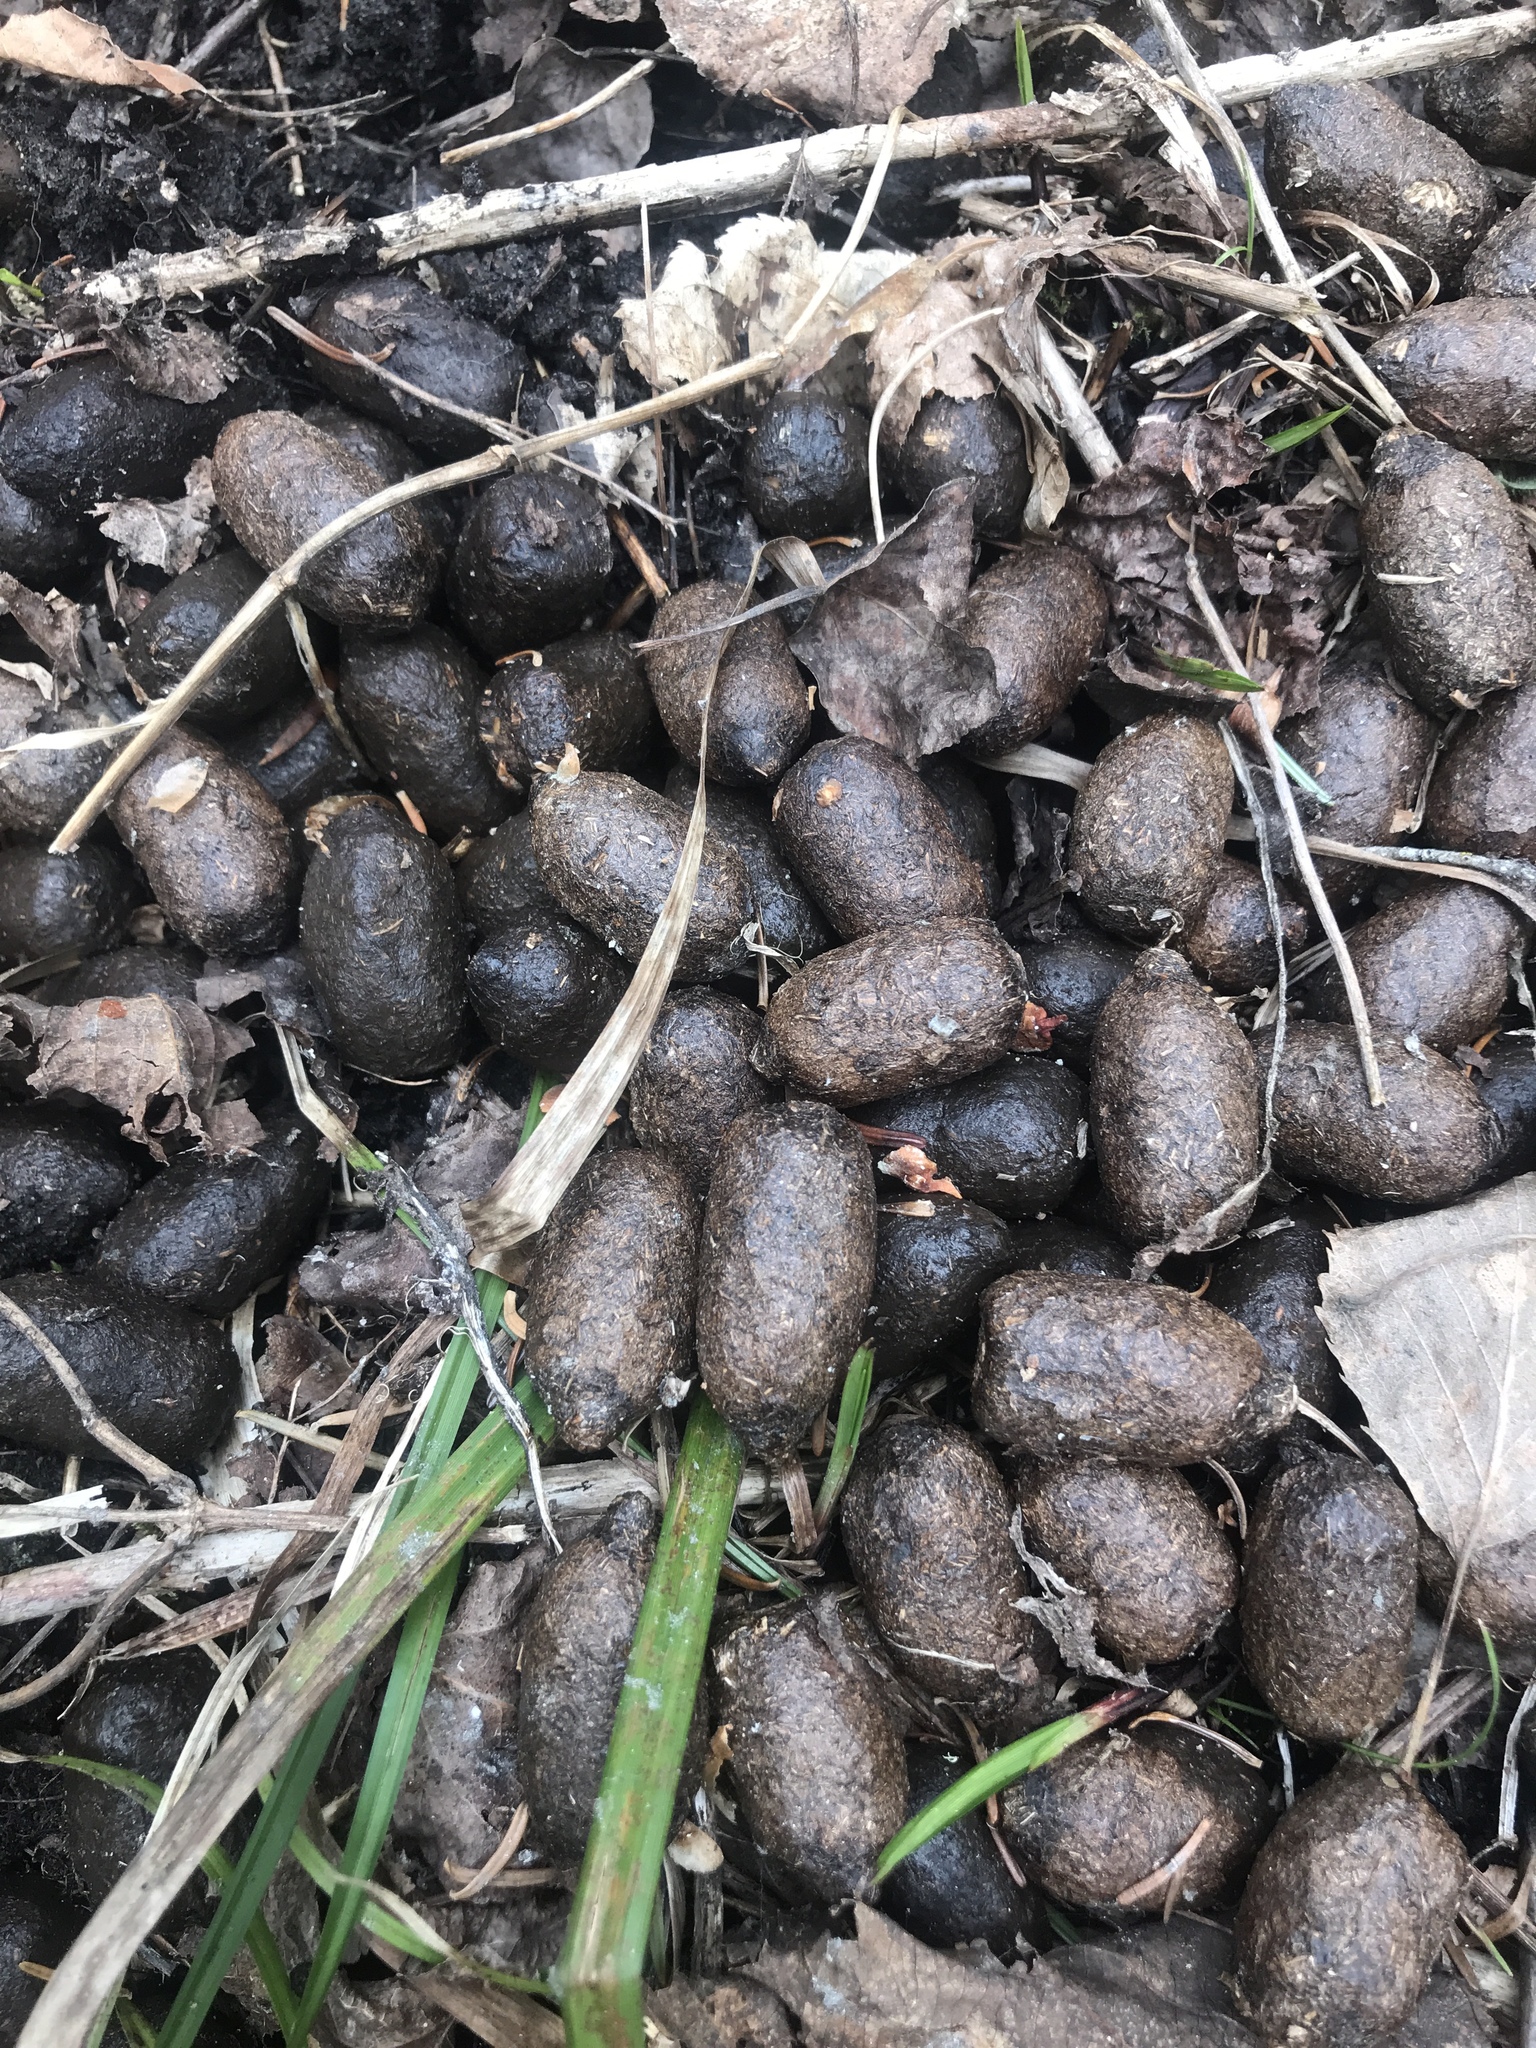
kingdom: Animalia
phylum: Chordata
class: Mammalia
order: Artiodactyla
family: Cervidae
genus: Alces
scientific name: Alces alces
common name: Moose
